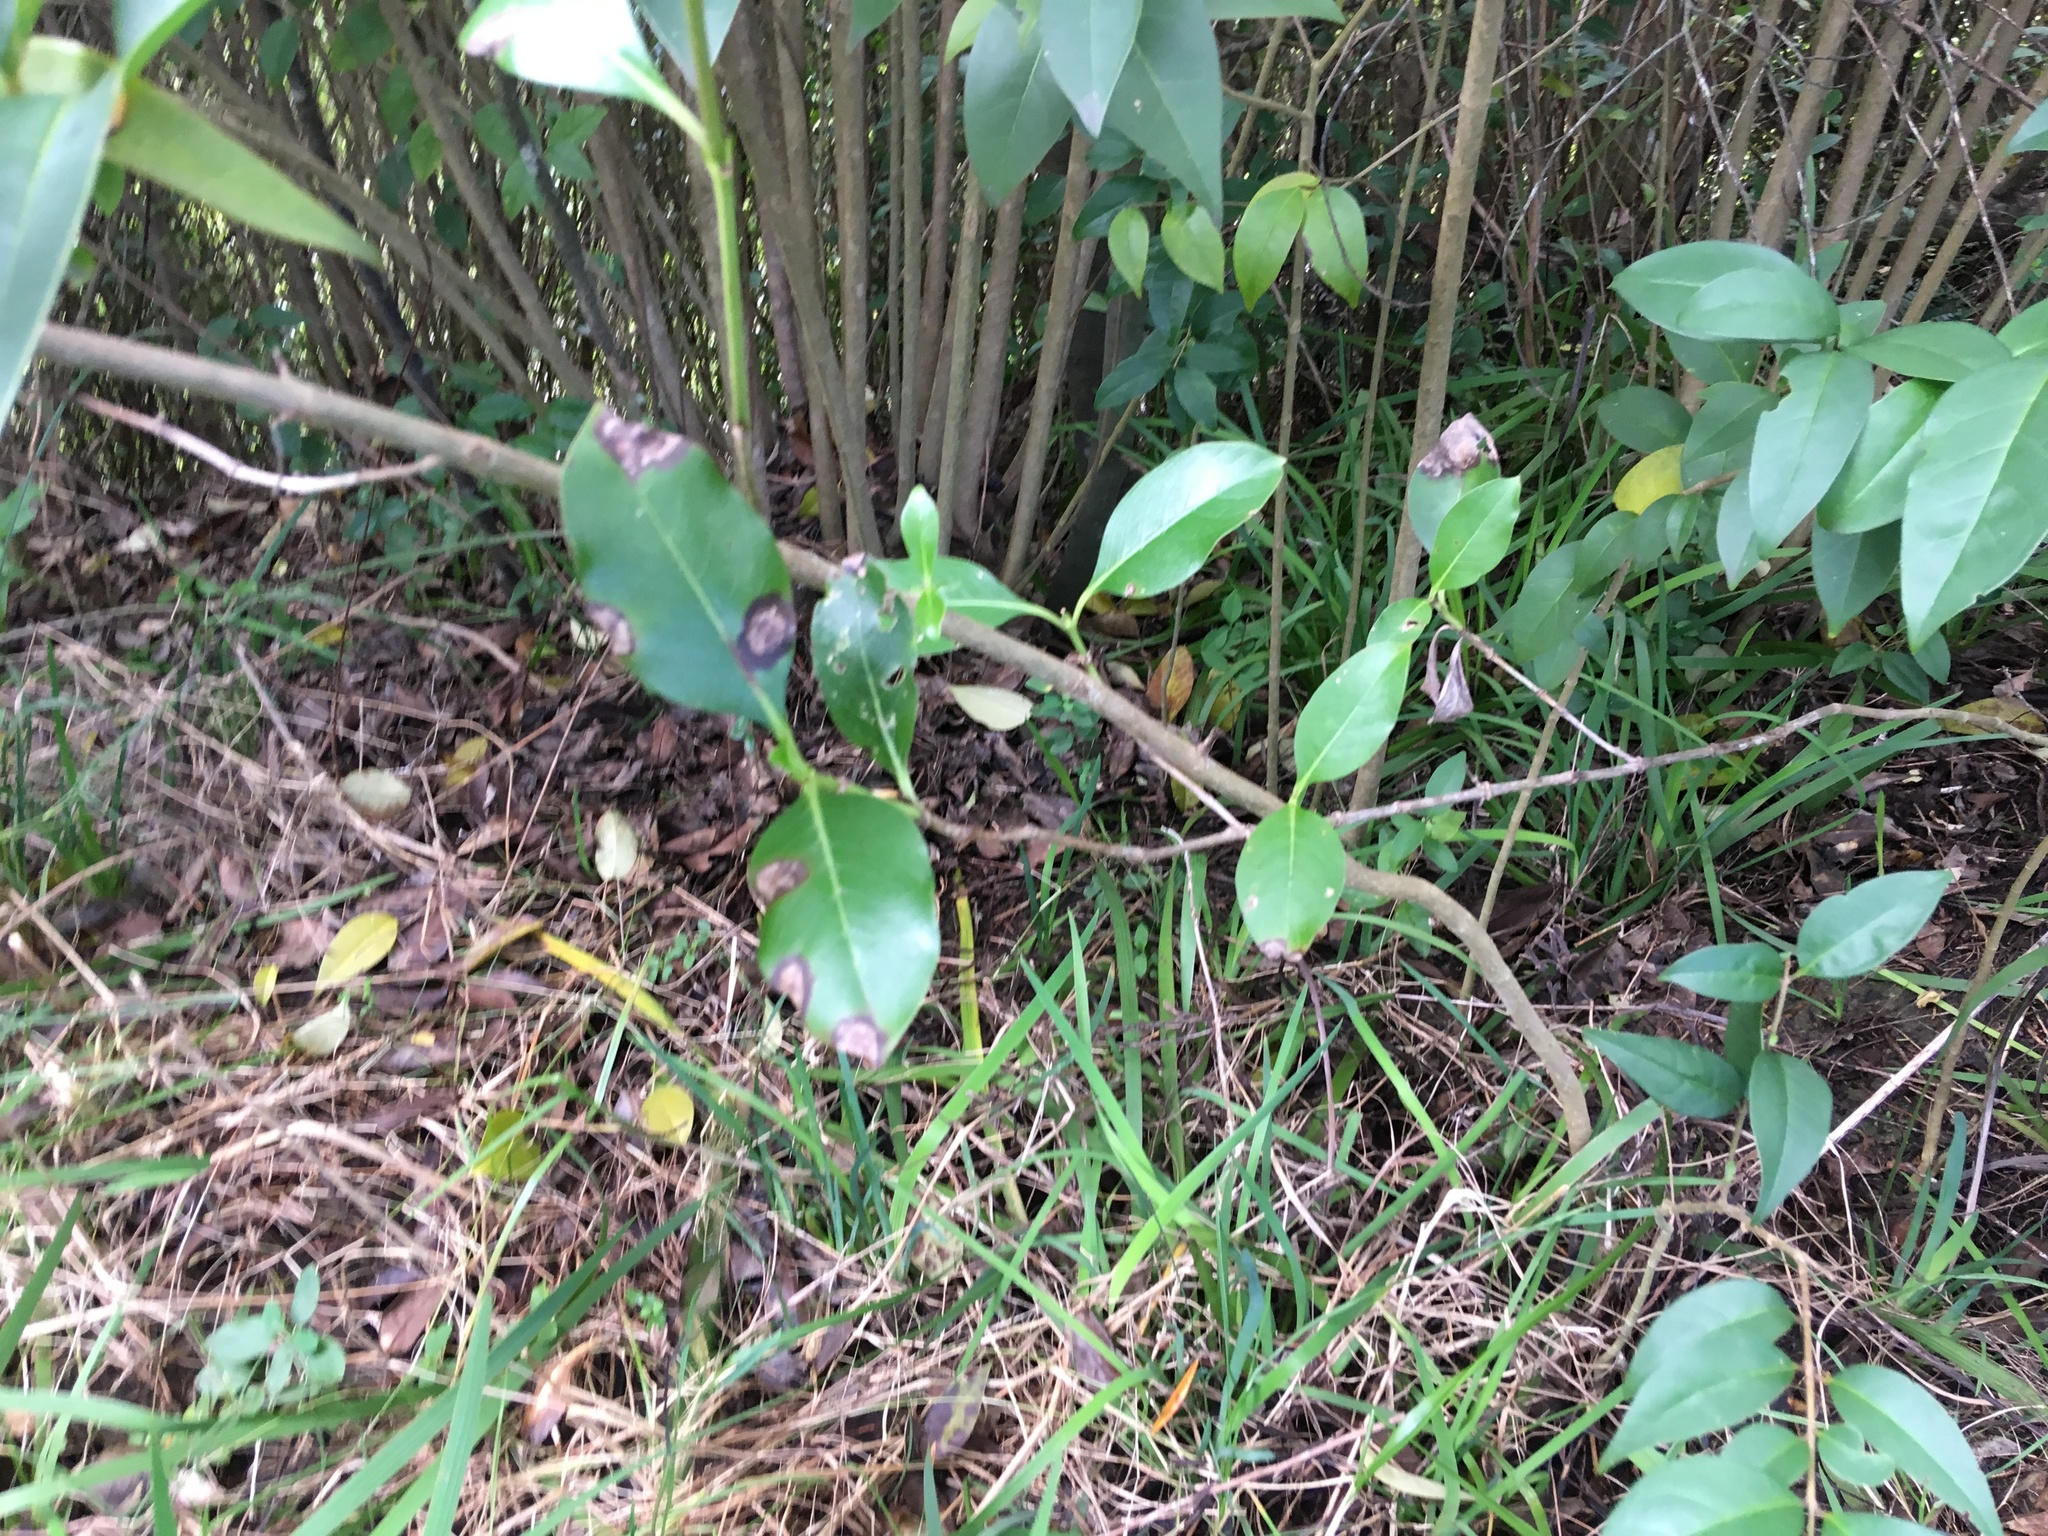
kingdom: Plantae
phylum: Tracheophyta
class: Magnoliopsida
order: Lamiales
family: Oleaceae
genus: Ligustrum
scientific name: Ligustrum lucidum
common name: Glossy privet
